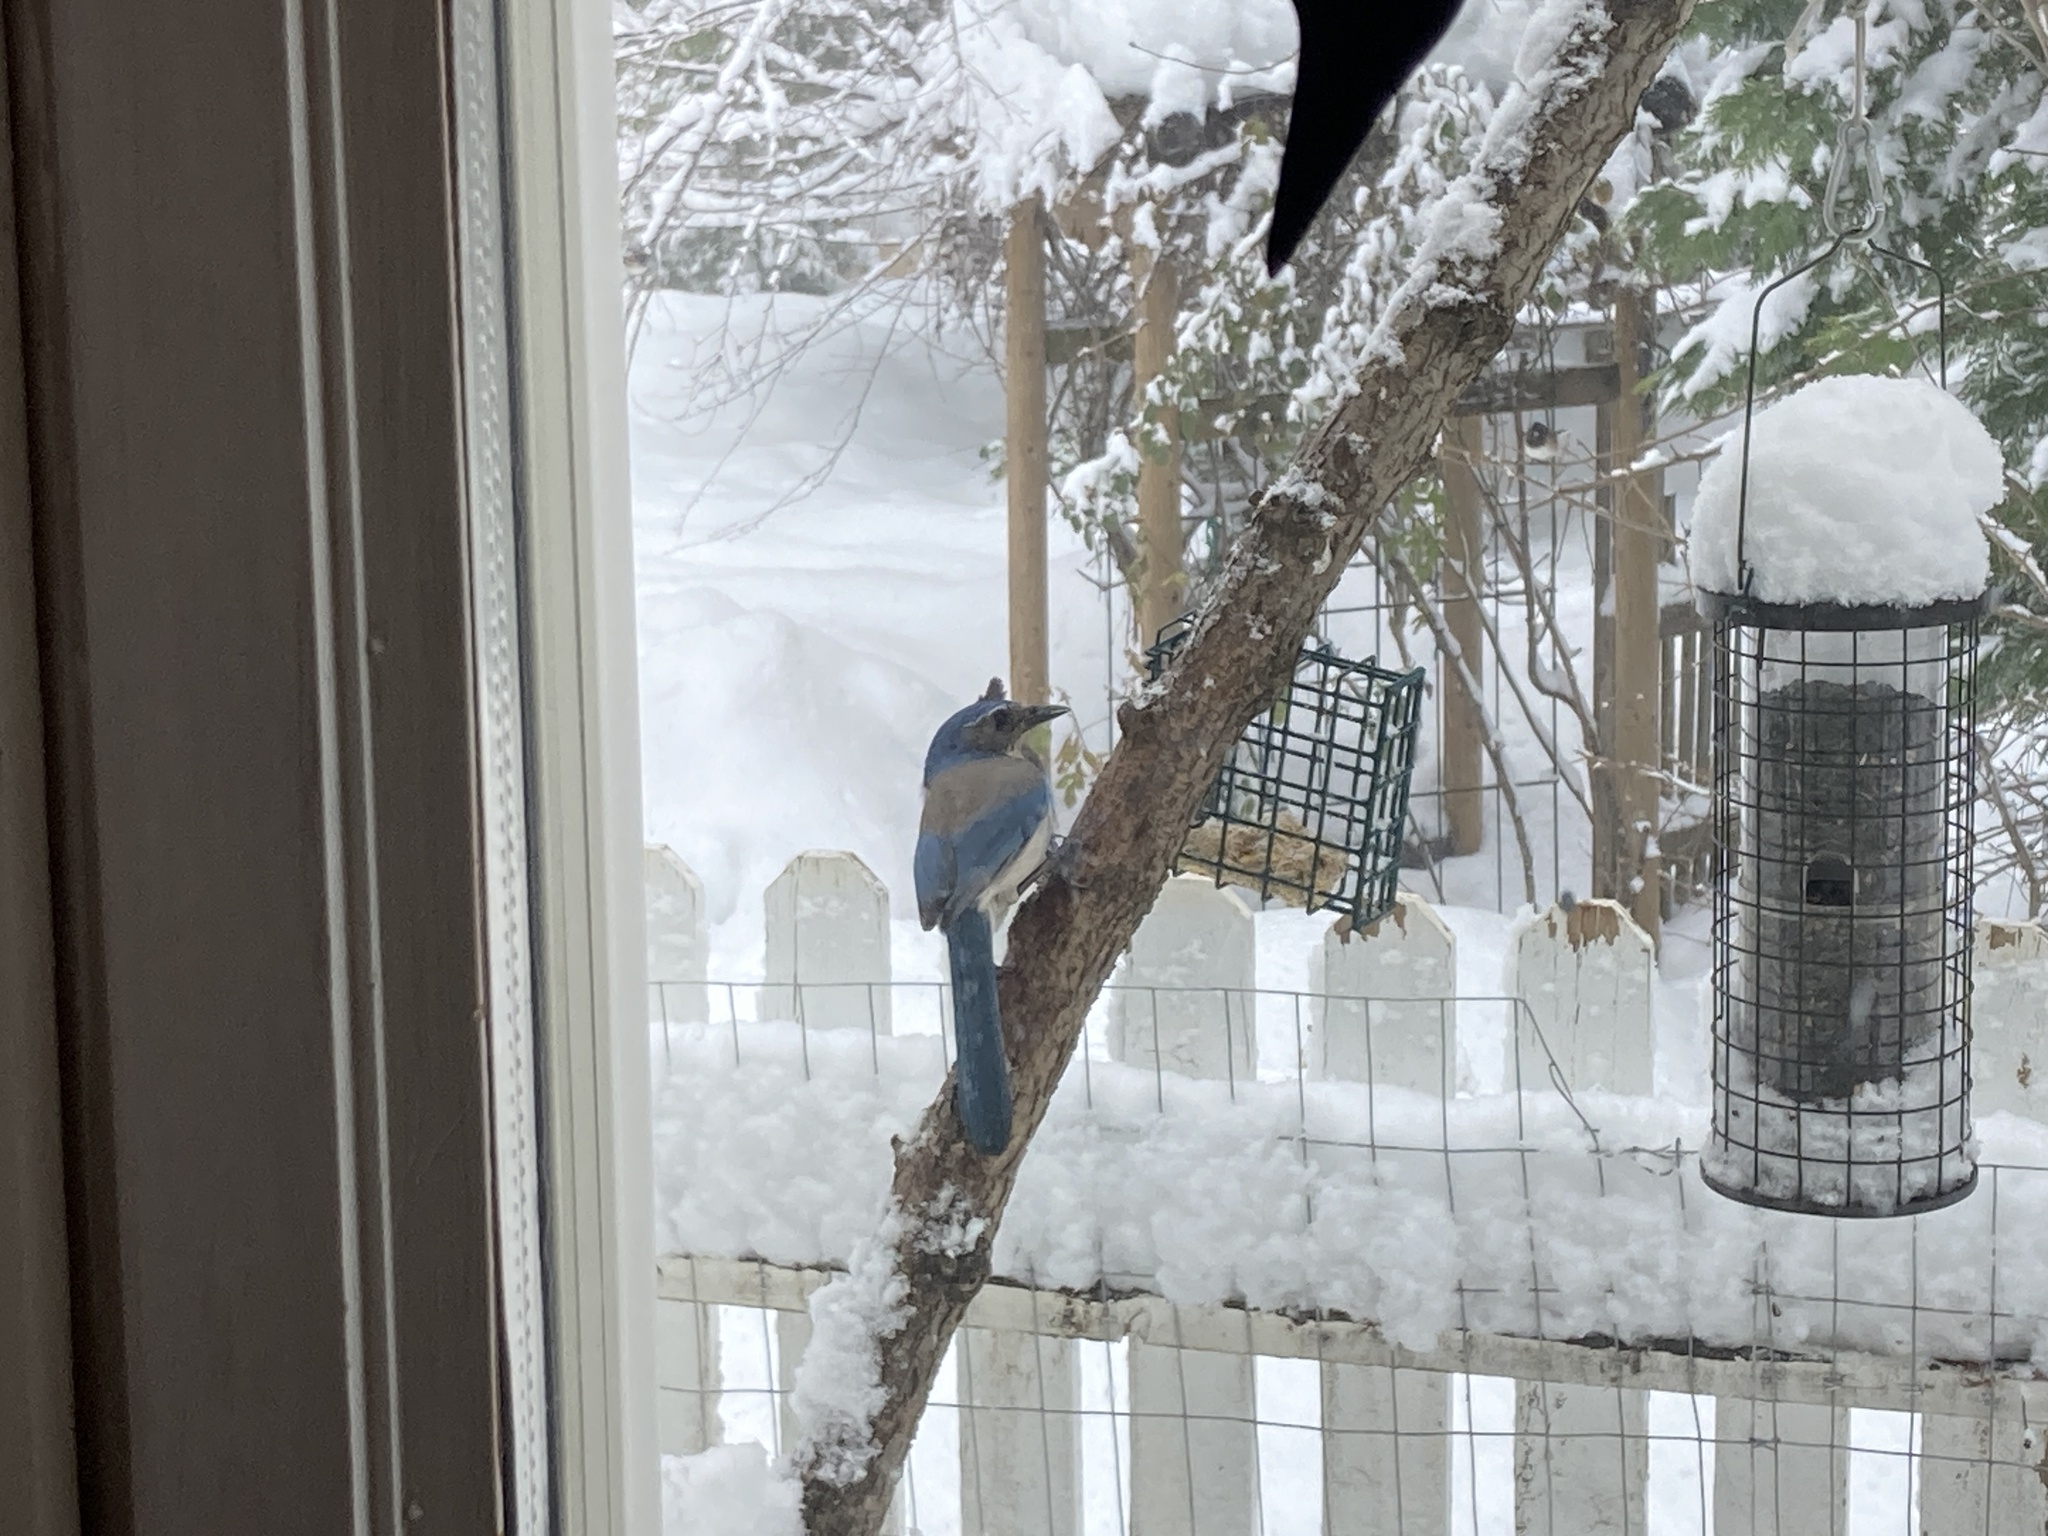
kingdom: Animalia
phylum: Chordata
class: Aves
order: Passeriformes
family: Corvidae
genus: Aphelocoma
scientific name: Aphelocoma californica
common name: California scrub-jay
